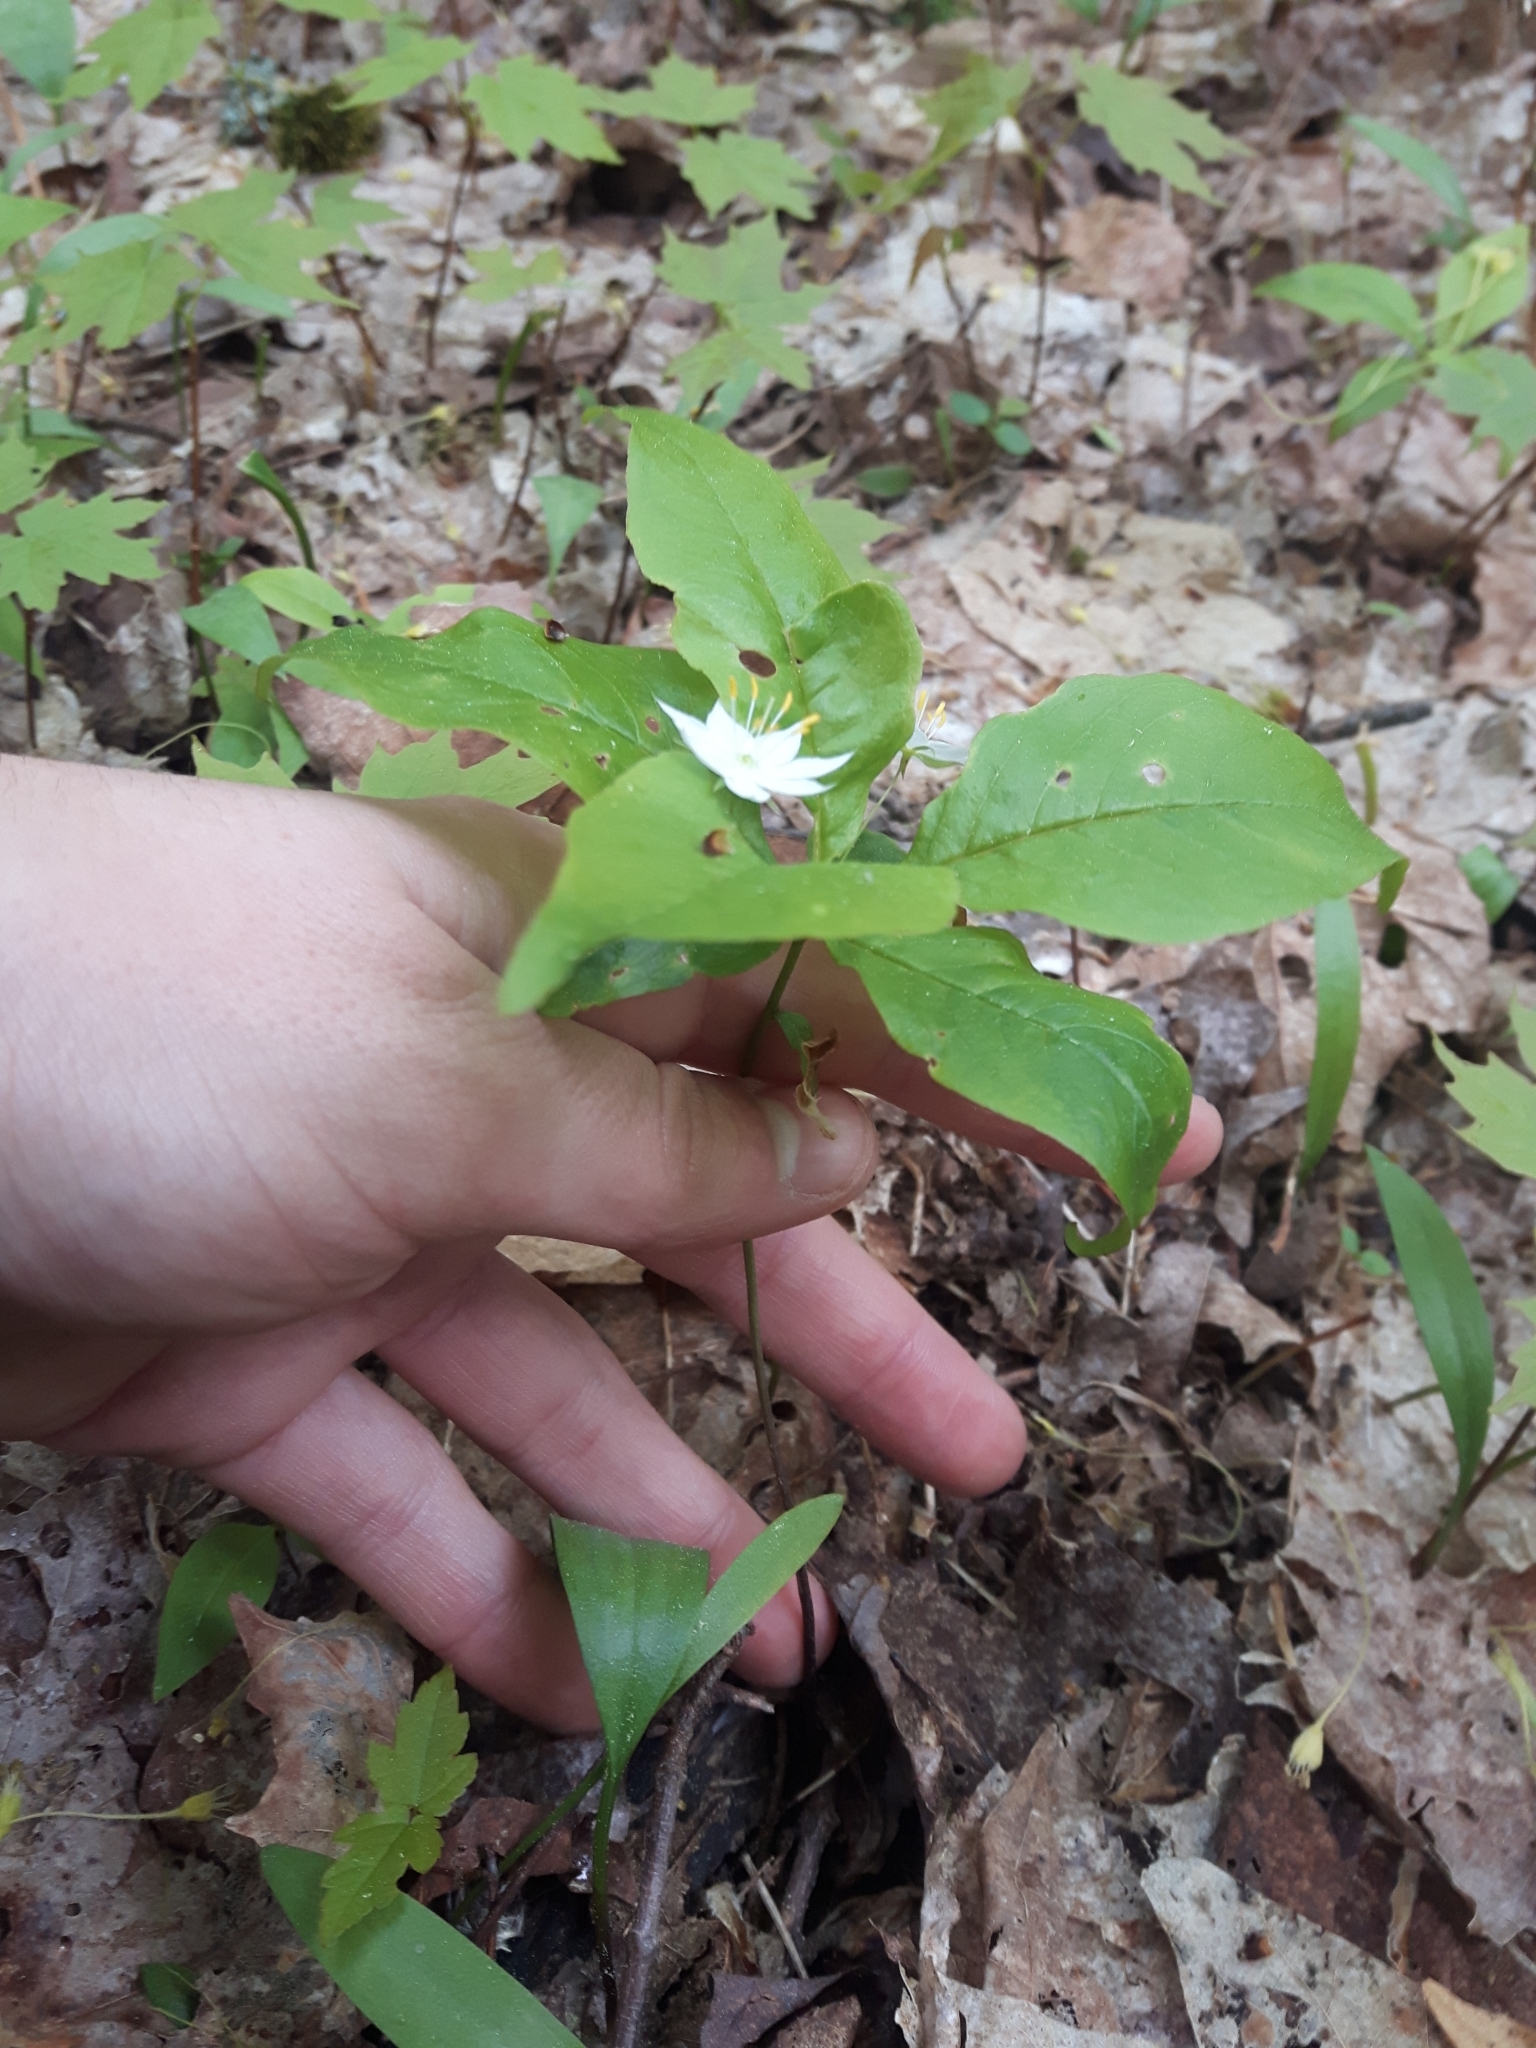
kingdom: Plantae
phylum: Tracheophyta
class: Magnoliopsida
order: Ericales
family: Primulaceae
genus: Lysimachia
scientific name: Lysimachia borealis
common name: American starflower
